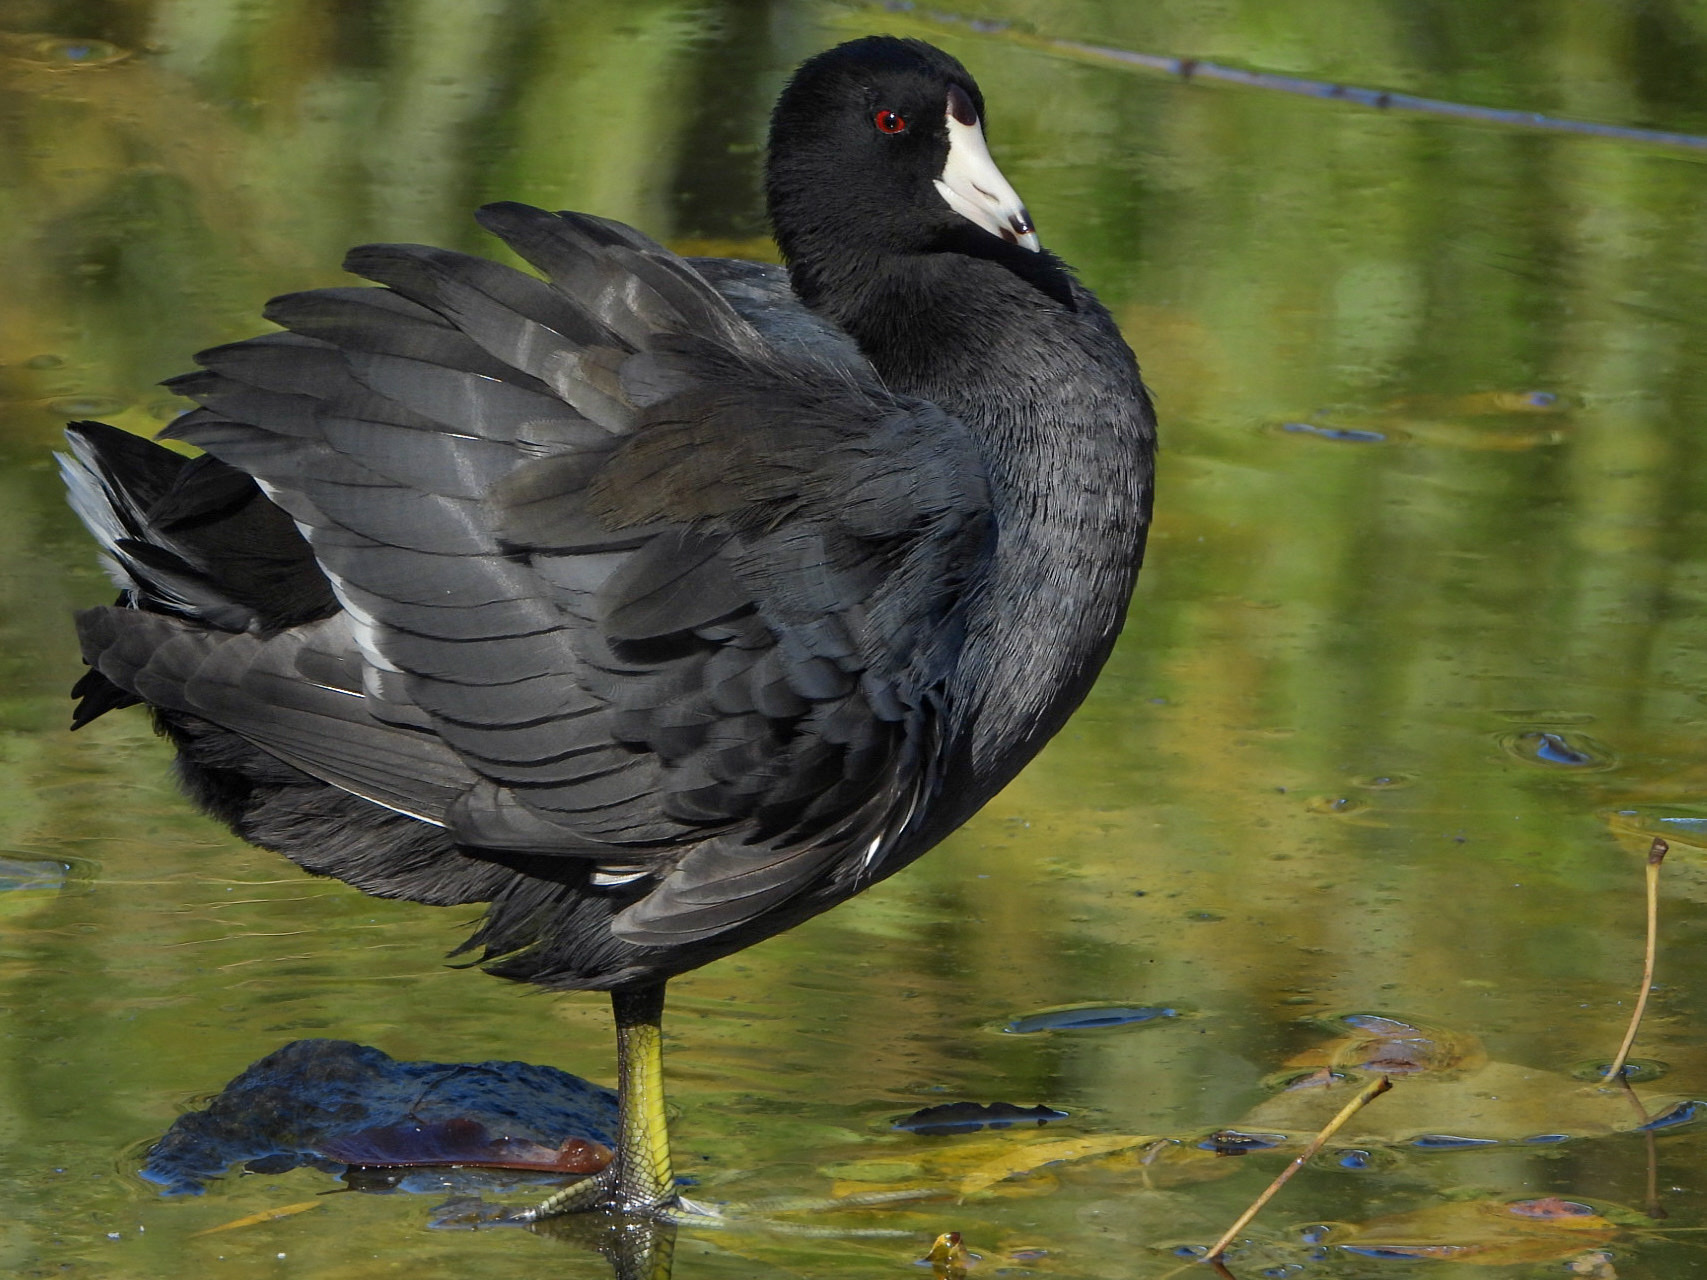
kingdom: Animalia
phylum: Chordata
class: Aves
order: Gruiformes
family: Rallidae
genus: Fulica
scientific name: Fulica americana
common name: American coot
